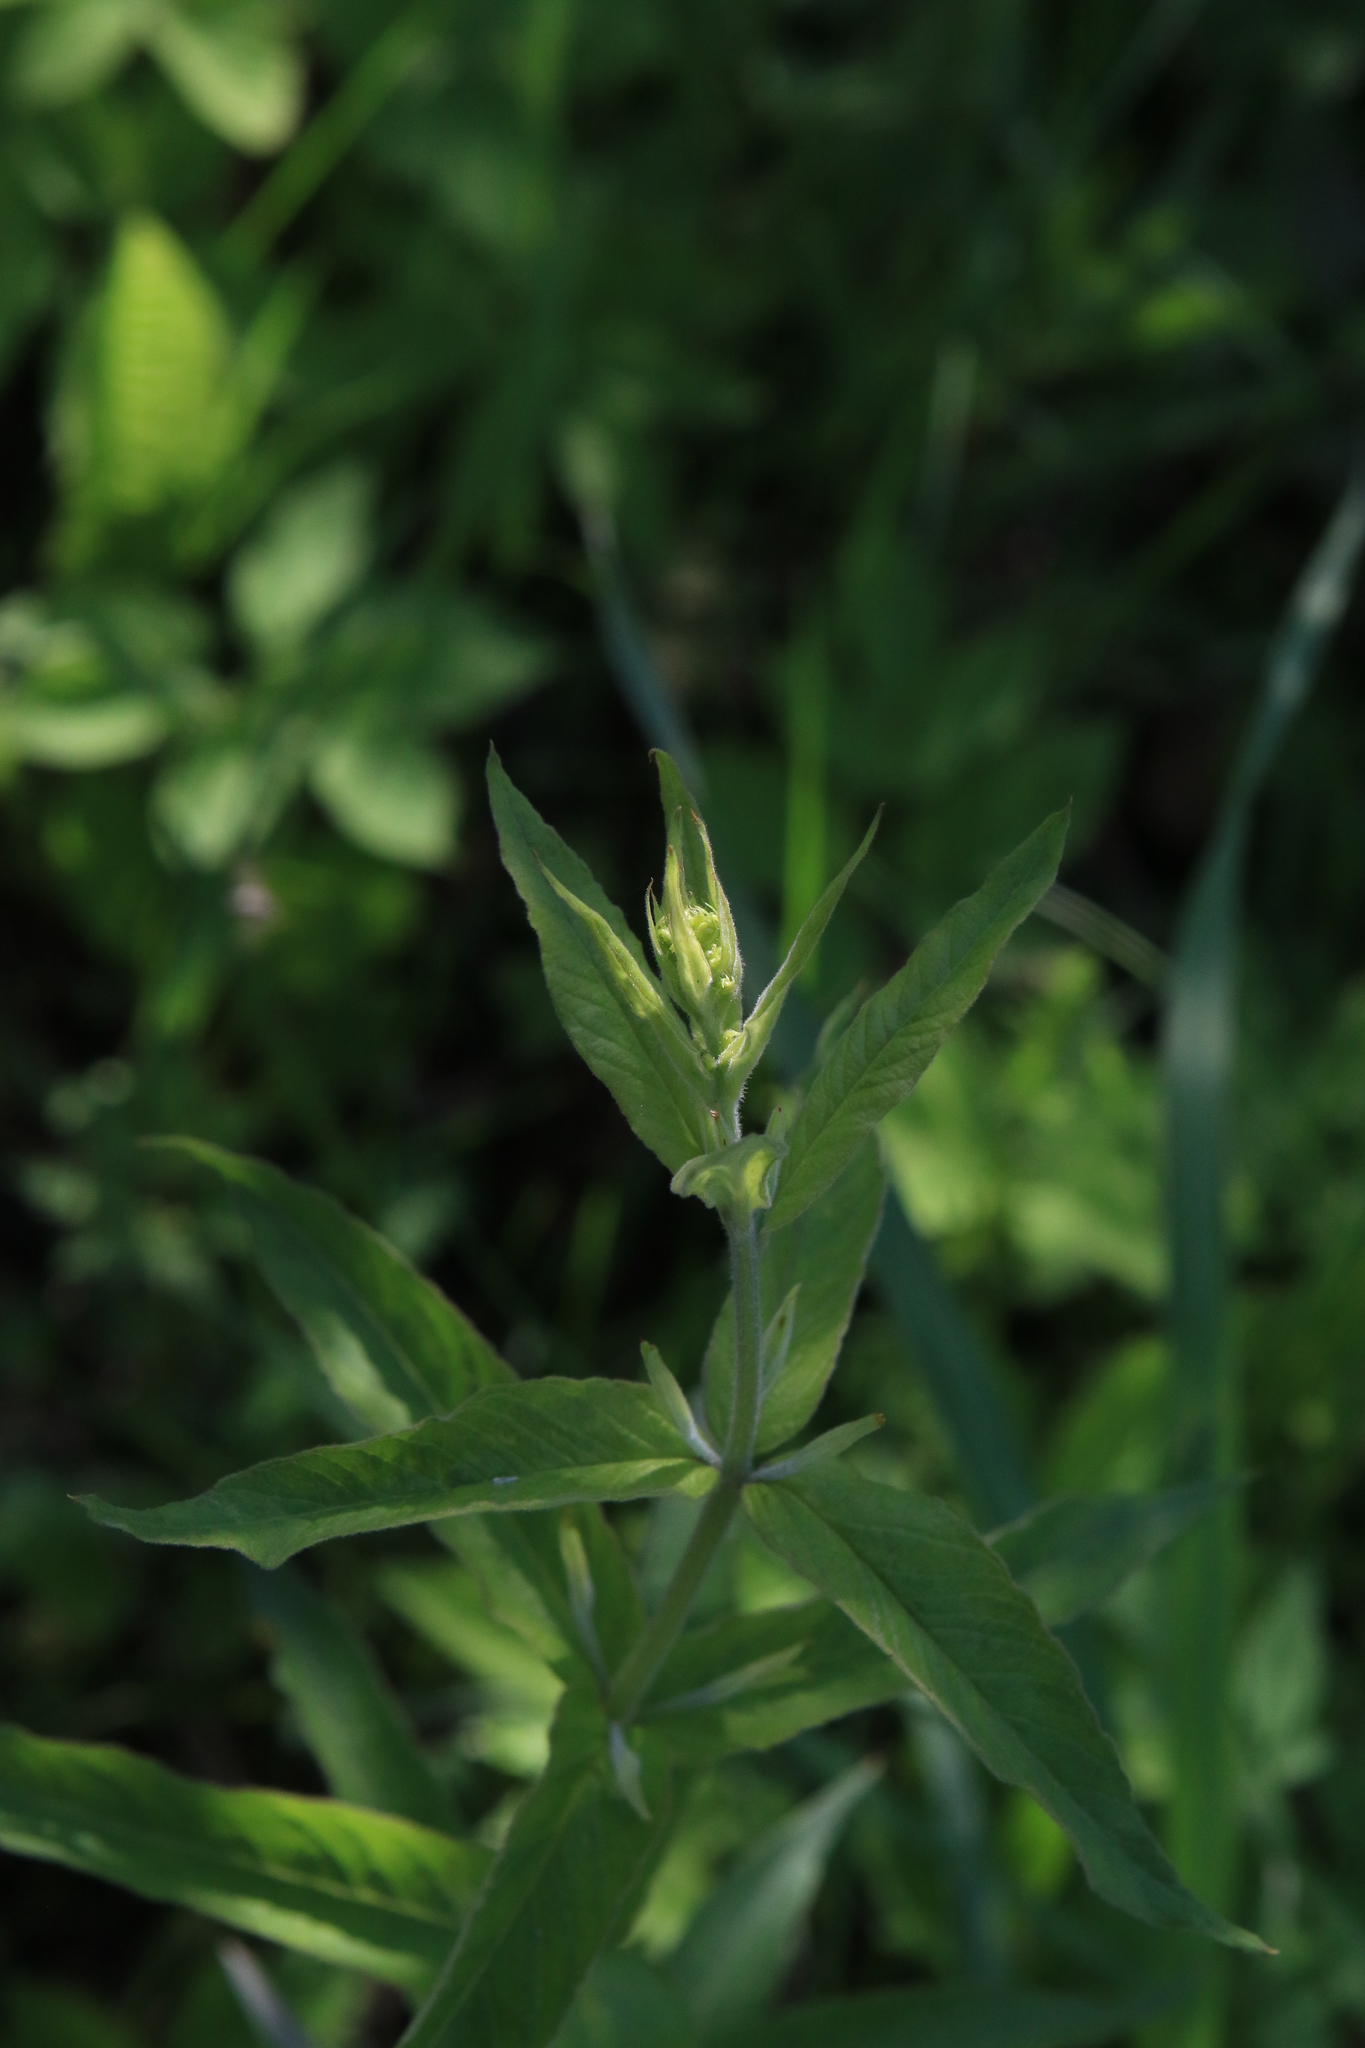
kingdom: Plantae
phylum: Tracheophyta
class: Magnoliopsida
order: Ericales
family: Primulaceae
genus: Lysimachia
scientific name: Lysimachia vulgaris
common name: Yellow loosestrife
